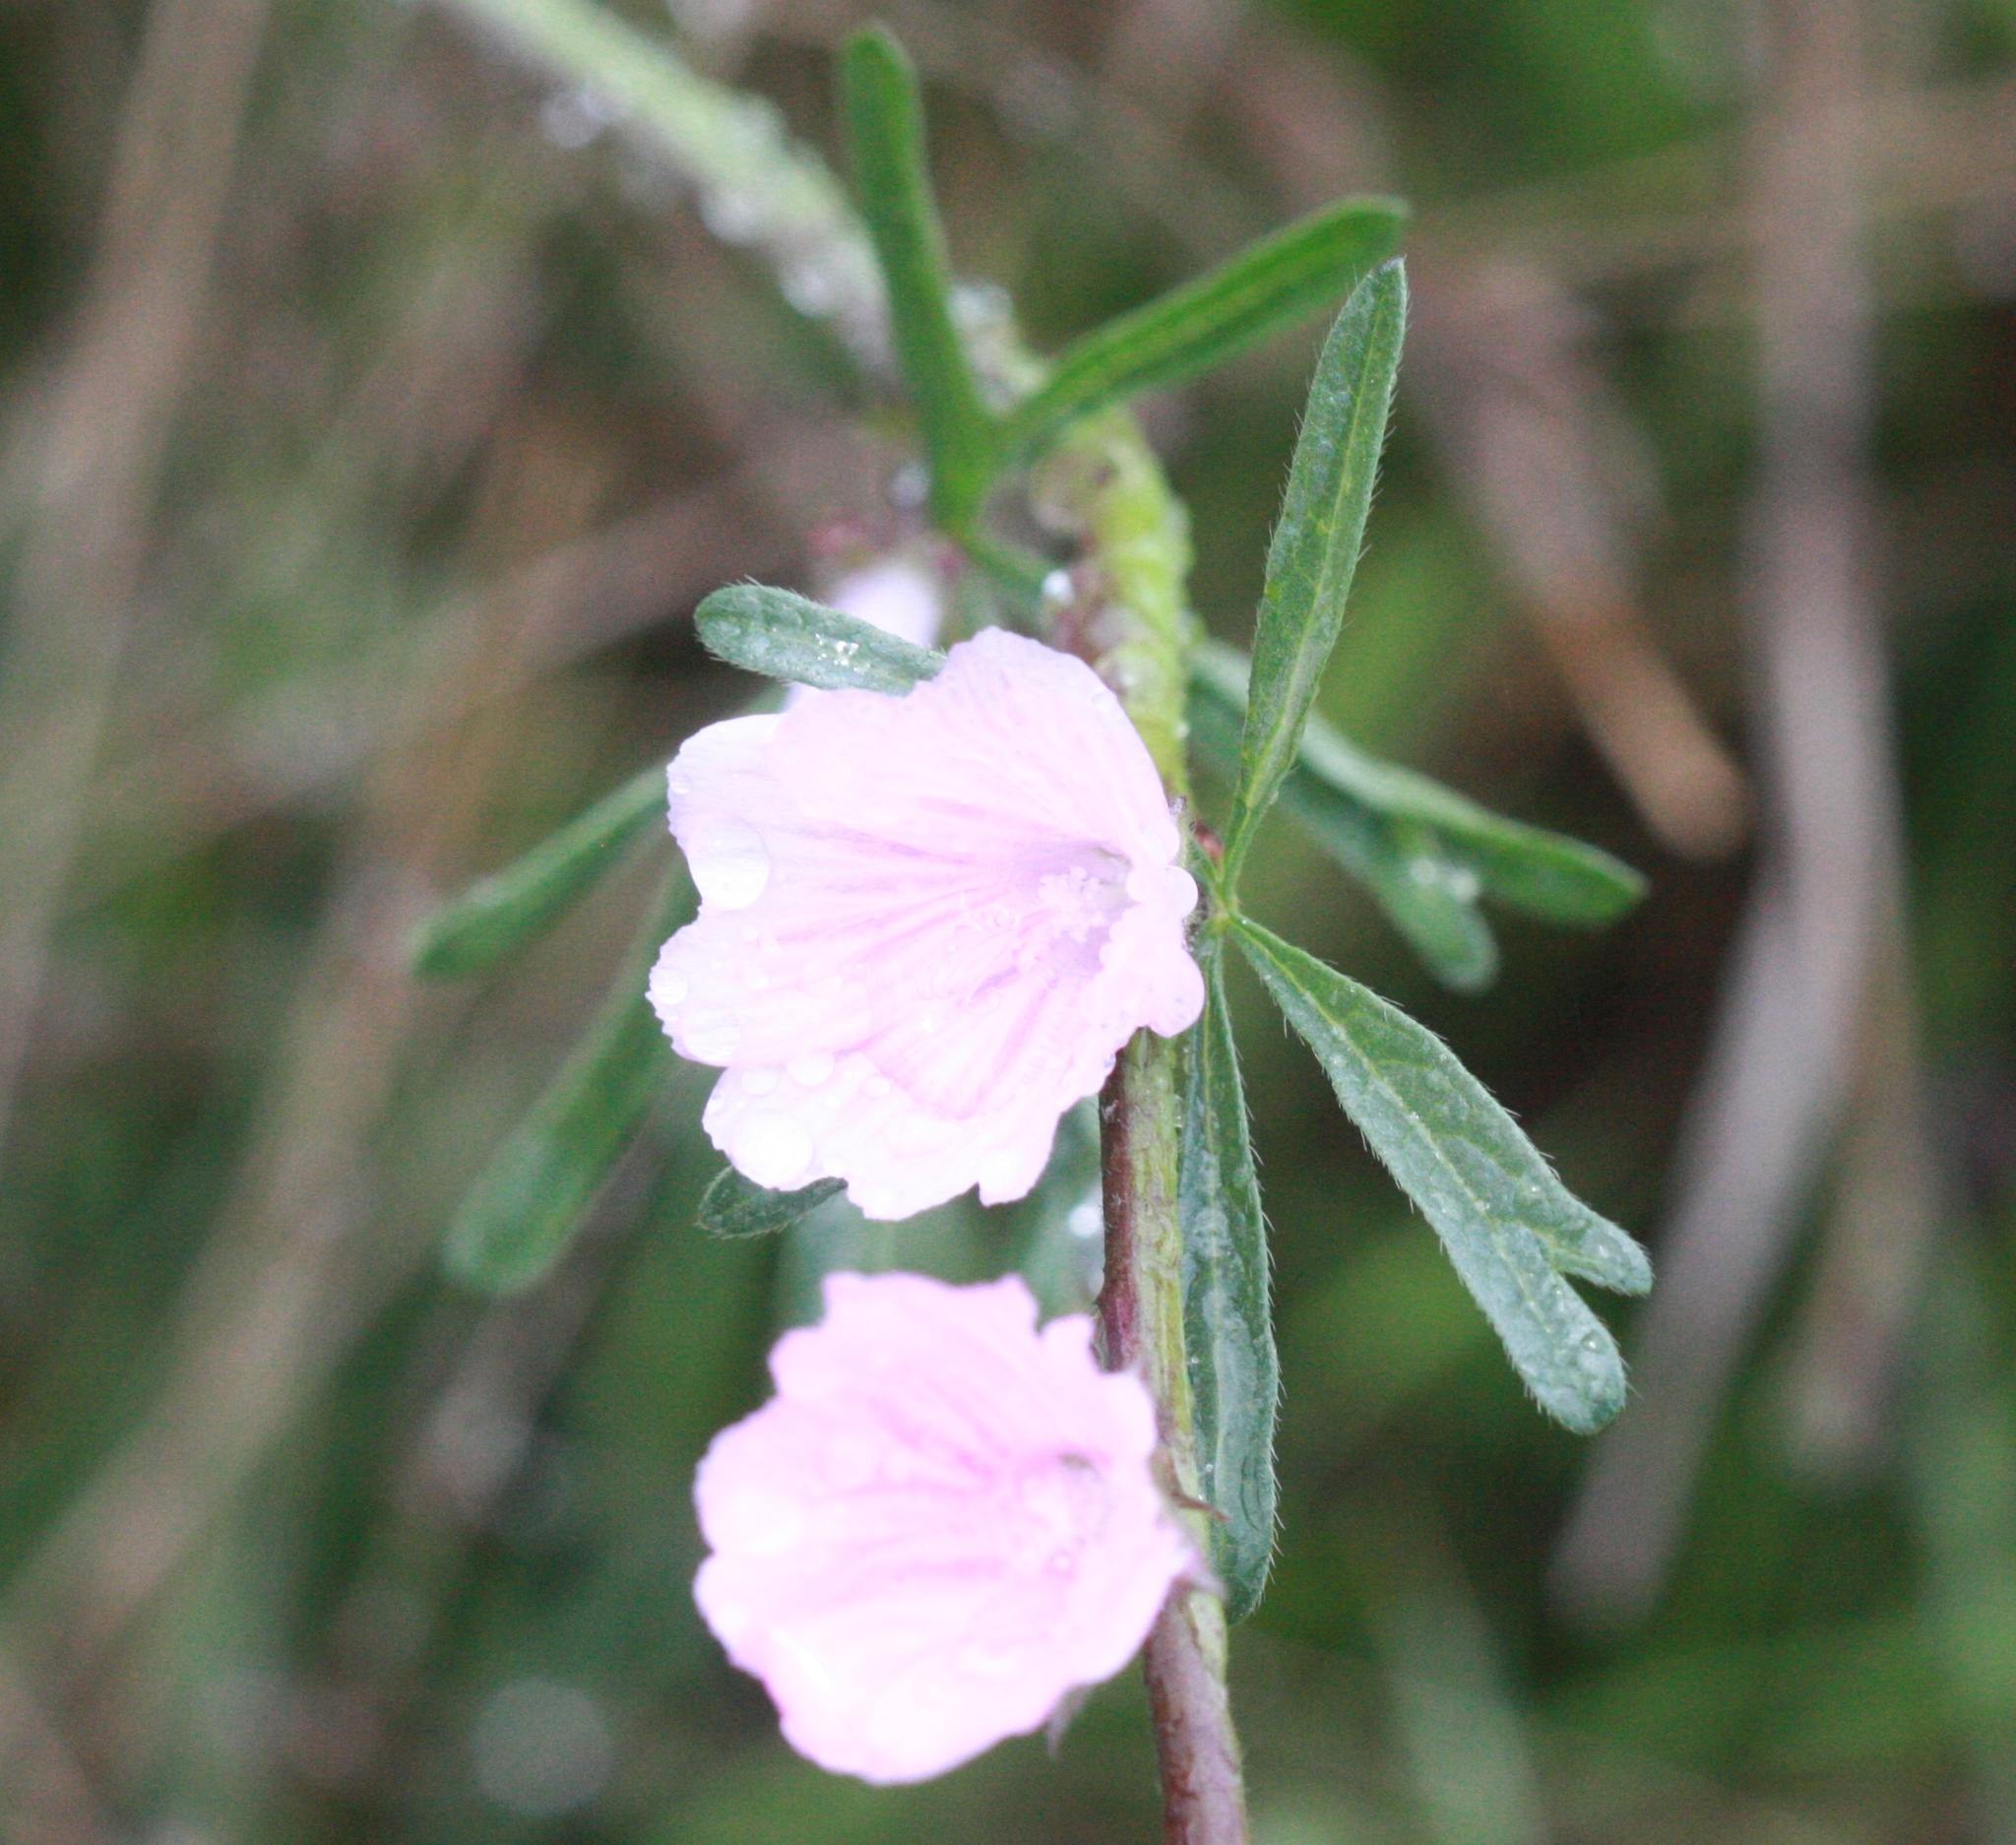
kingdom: Plantae
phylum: Tracheophyta
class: Magnoliopsida
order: Malvales
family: Malvaceae
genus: Sidalcea
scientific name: Sidalcea malviflora
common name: Greek mallow
